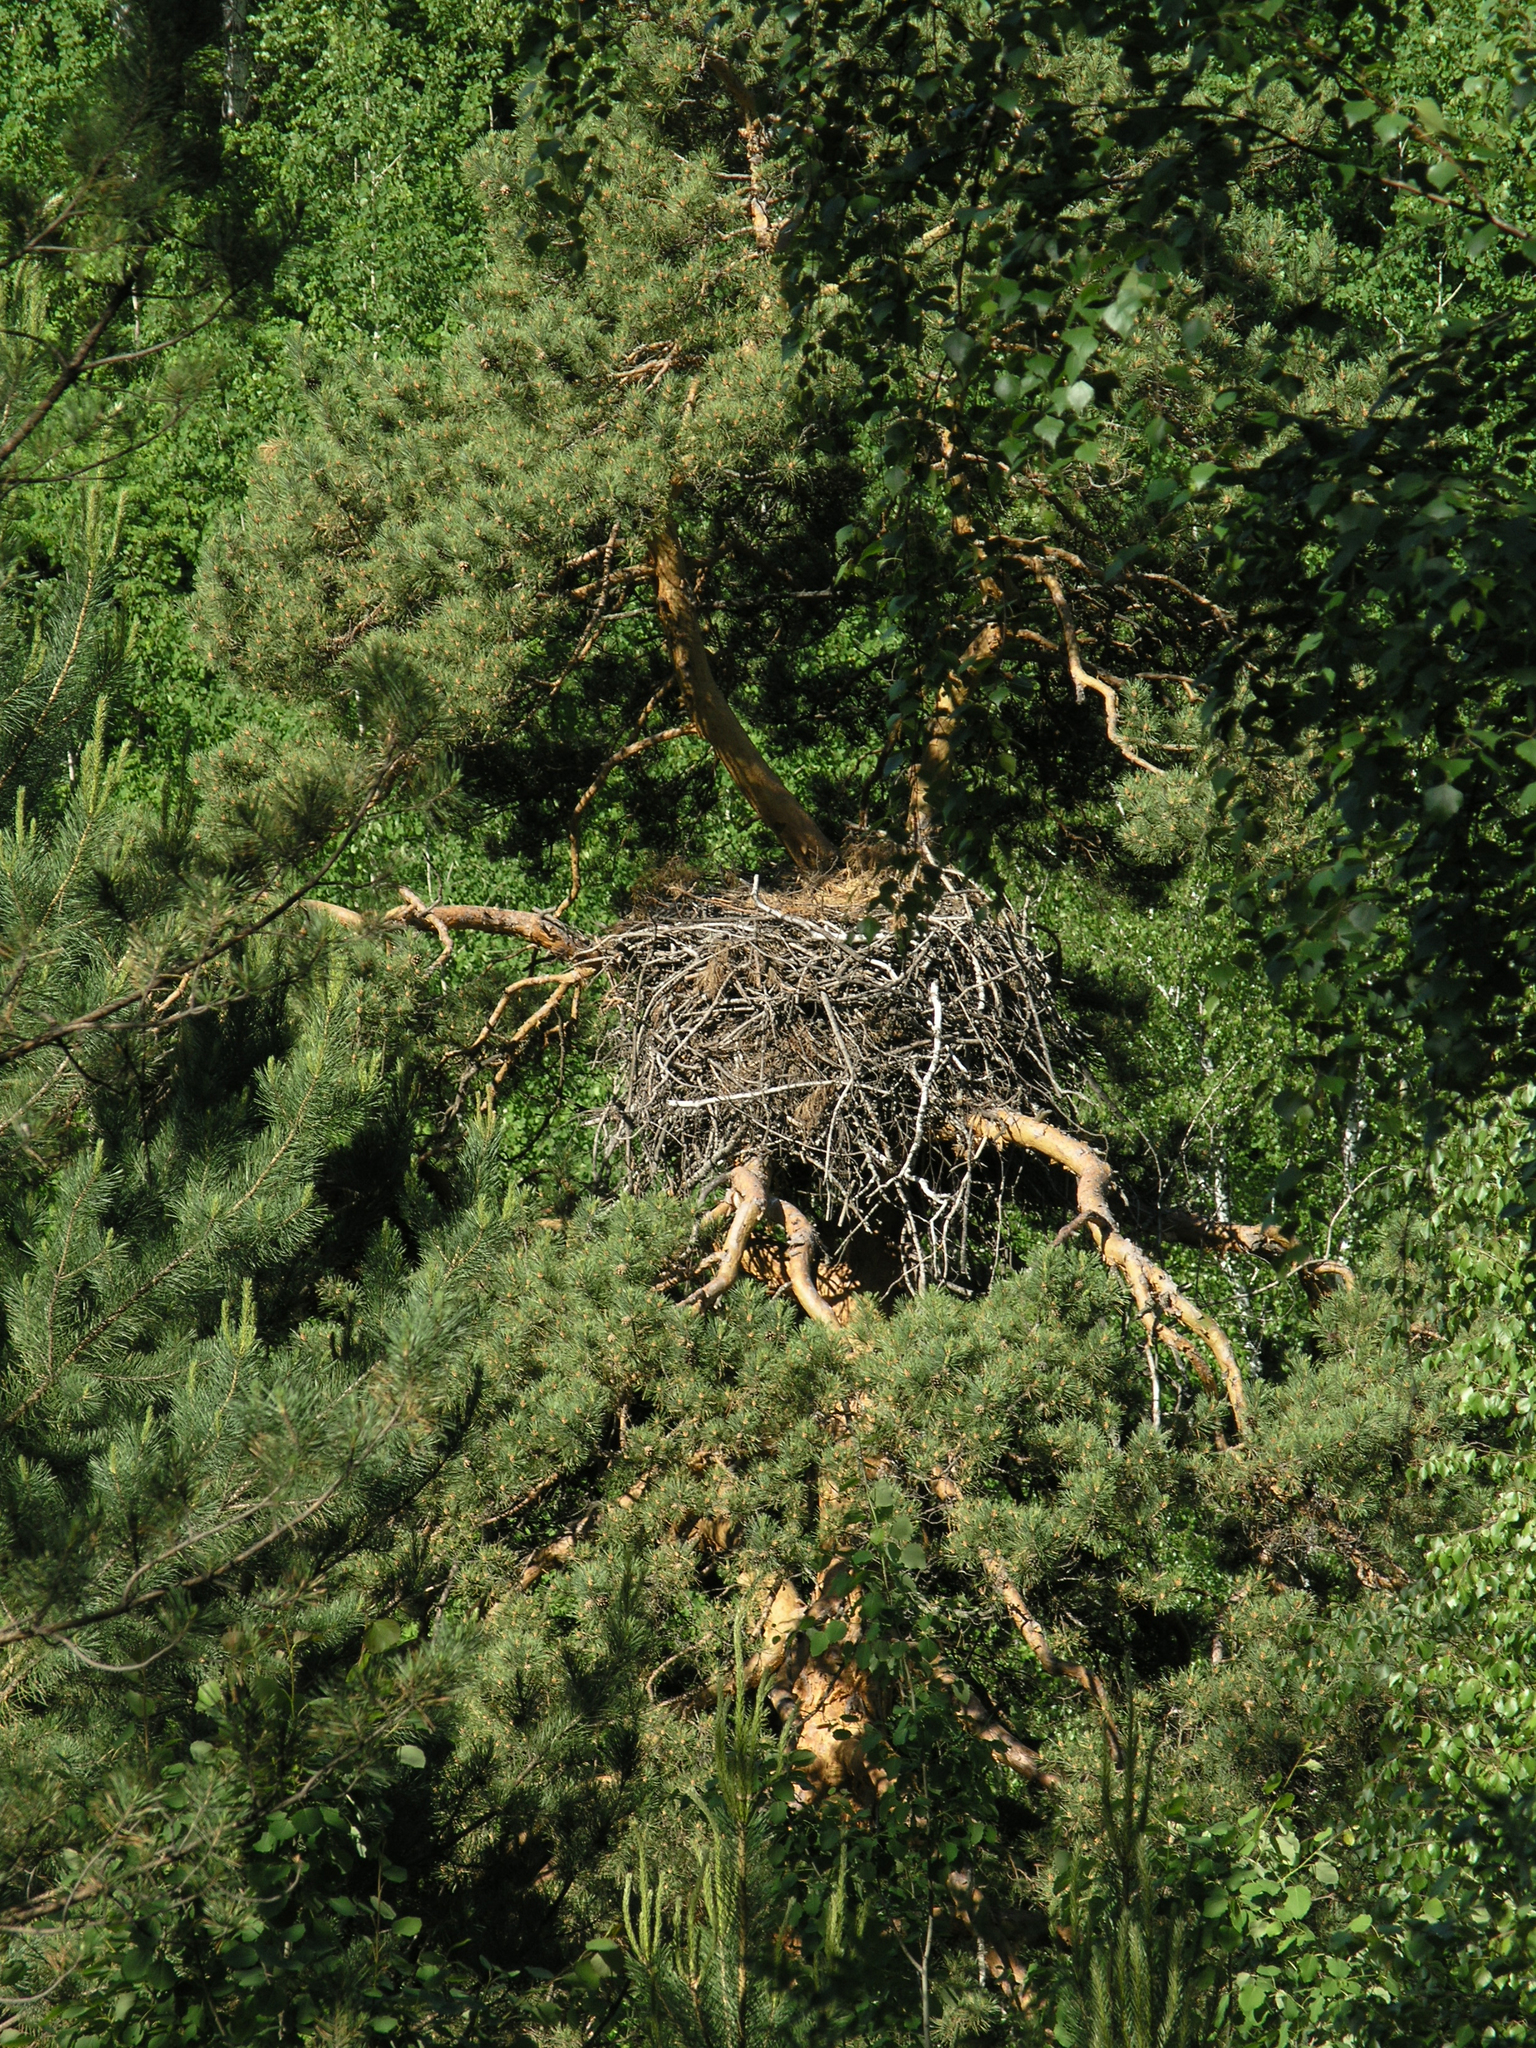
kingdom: Animalia
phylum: Chordata
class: Aves
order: Accipitriformes
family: Accipitridae
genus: Aquila
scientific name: Aquila chrysaetos
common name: Golden eagle
